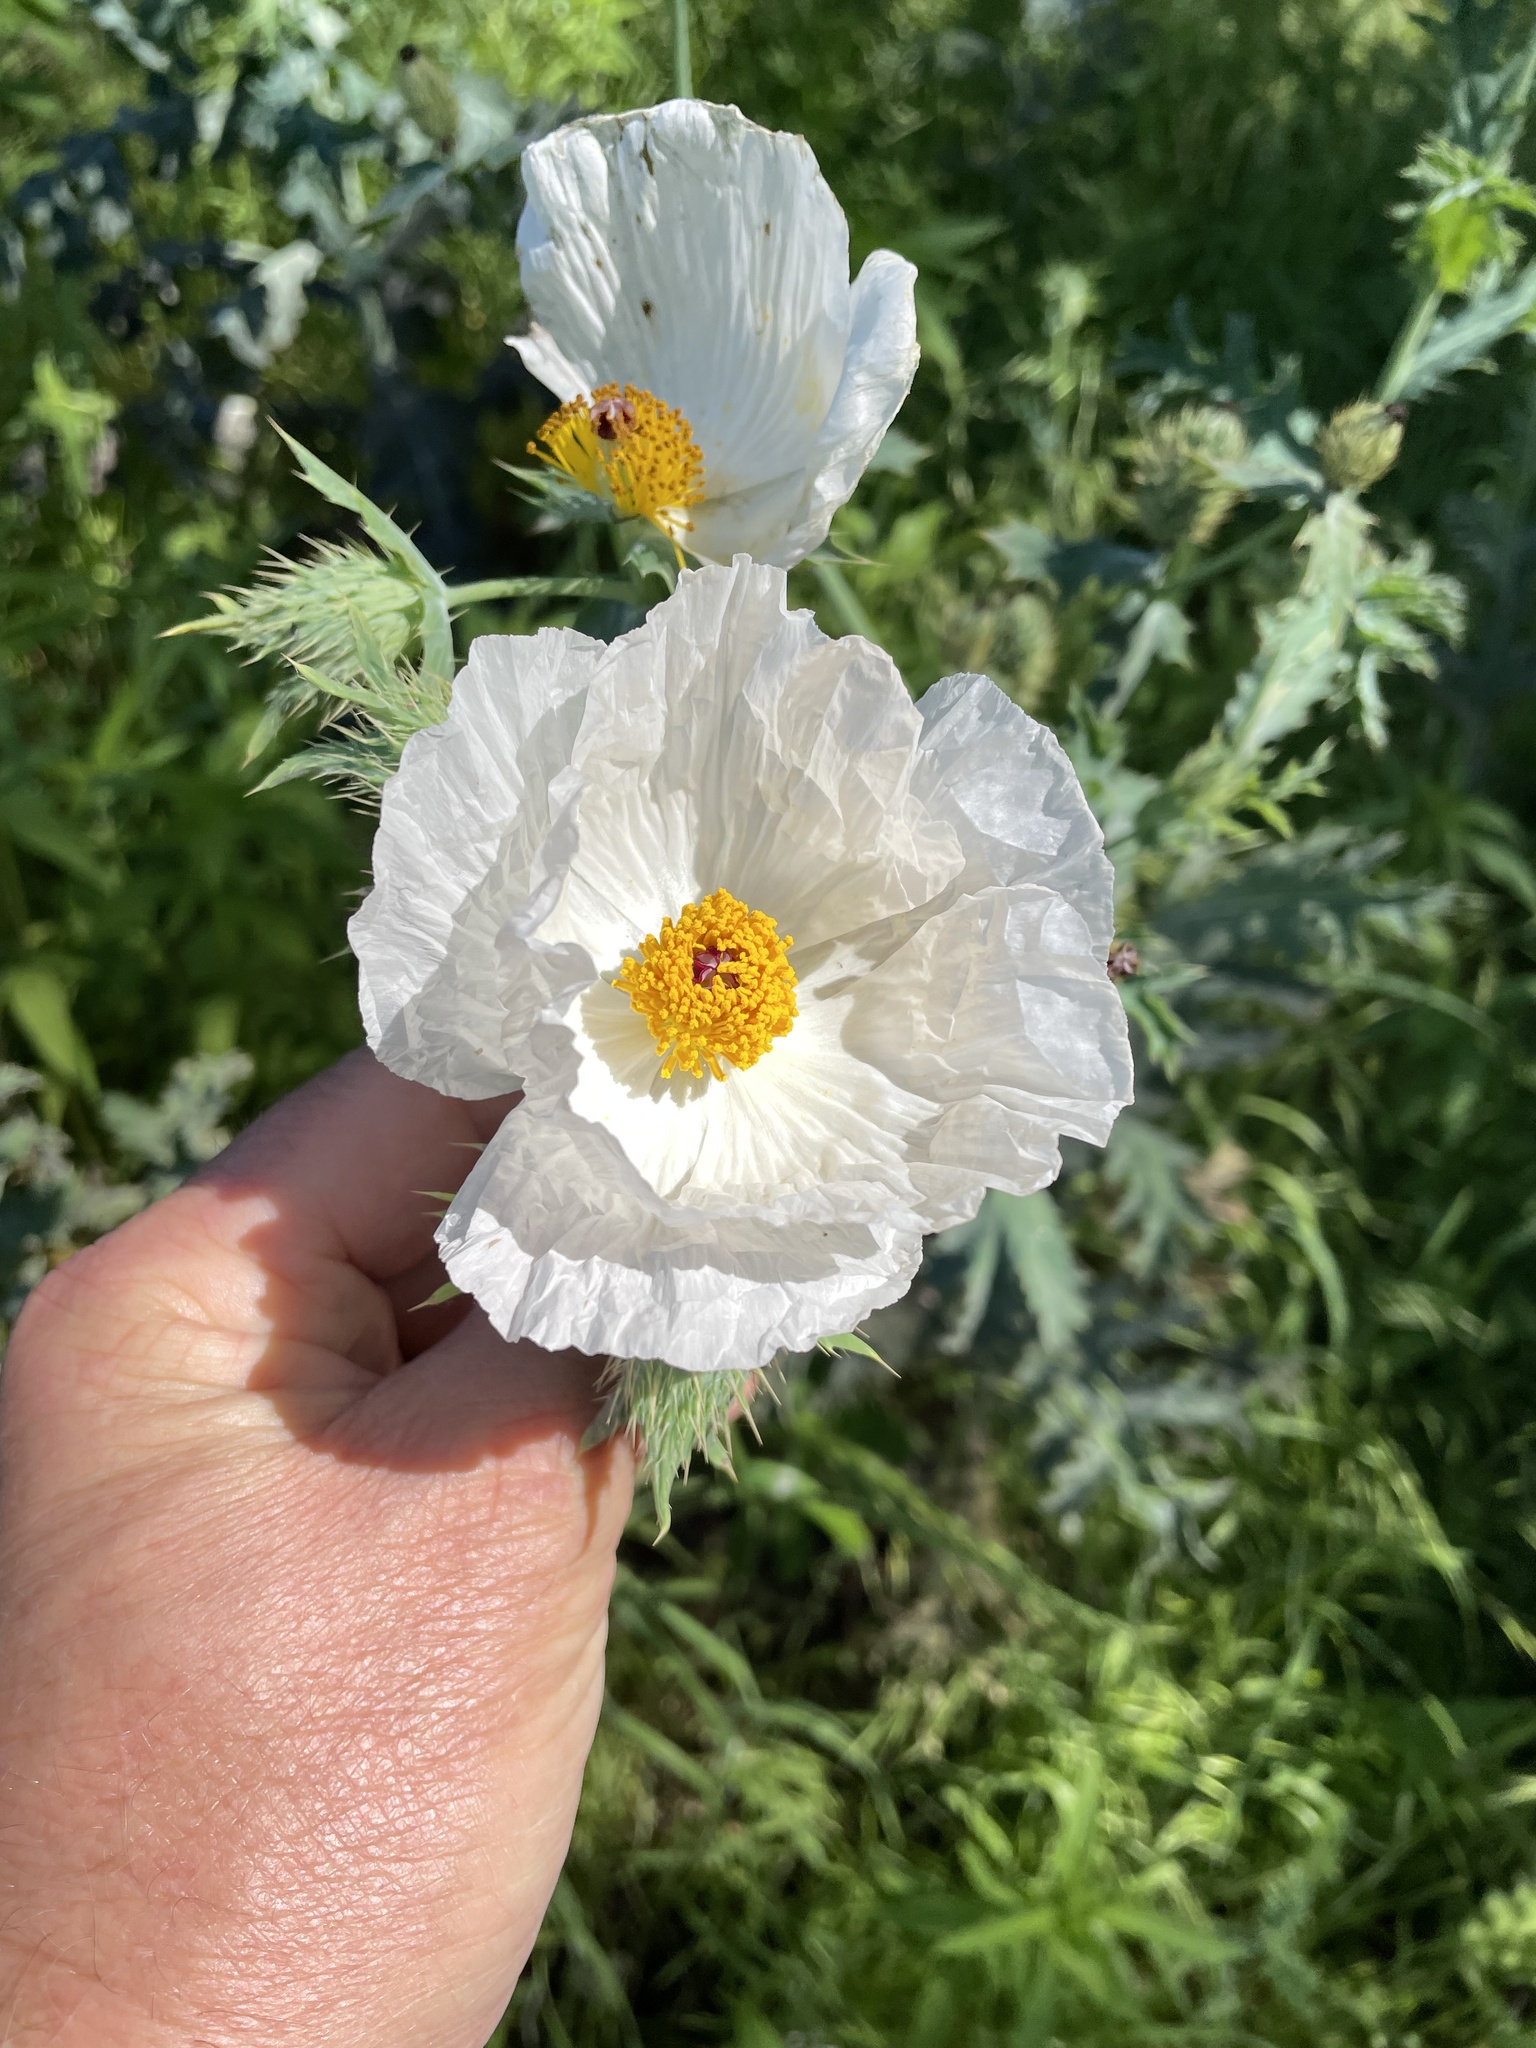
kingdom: Plantae
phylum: Tracheophyta
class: Magnoliopsida
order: Ranunculales
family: Papaveraceae
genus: Argemone
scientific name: Argemone albiflora
